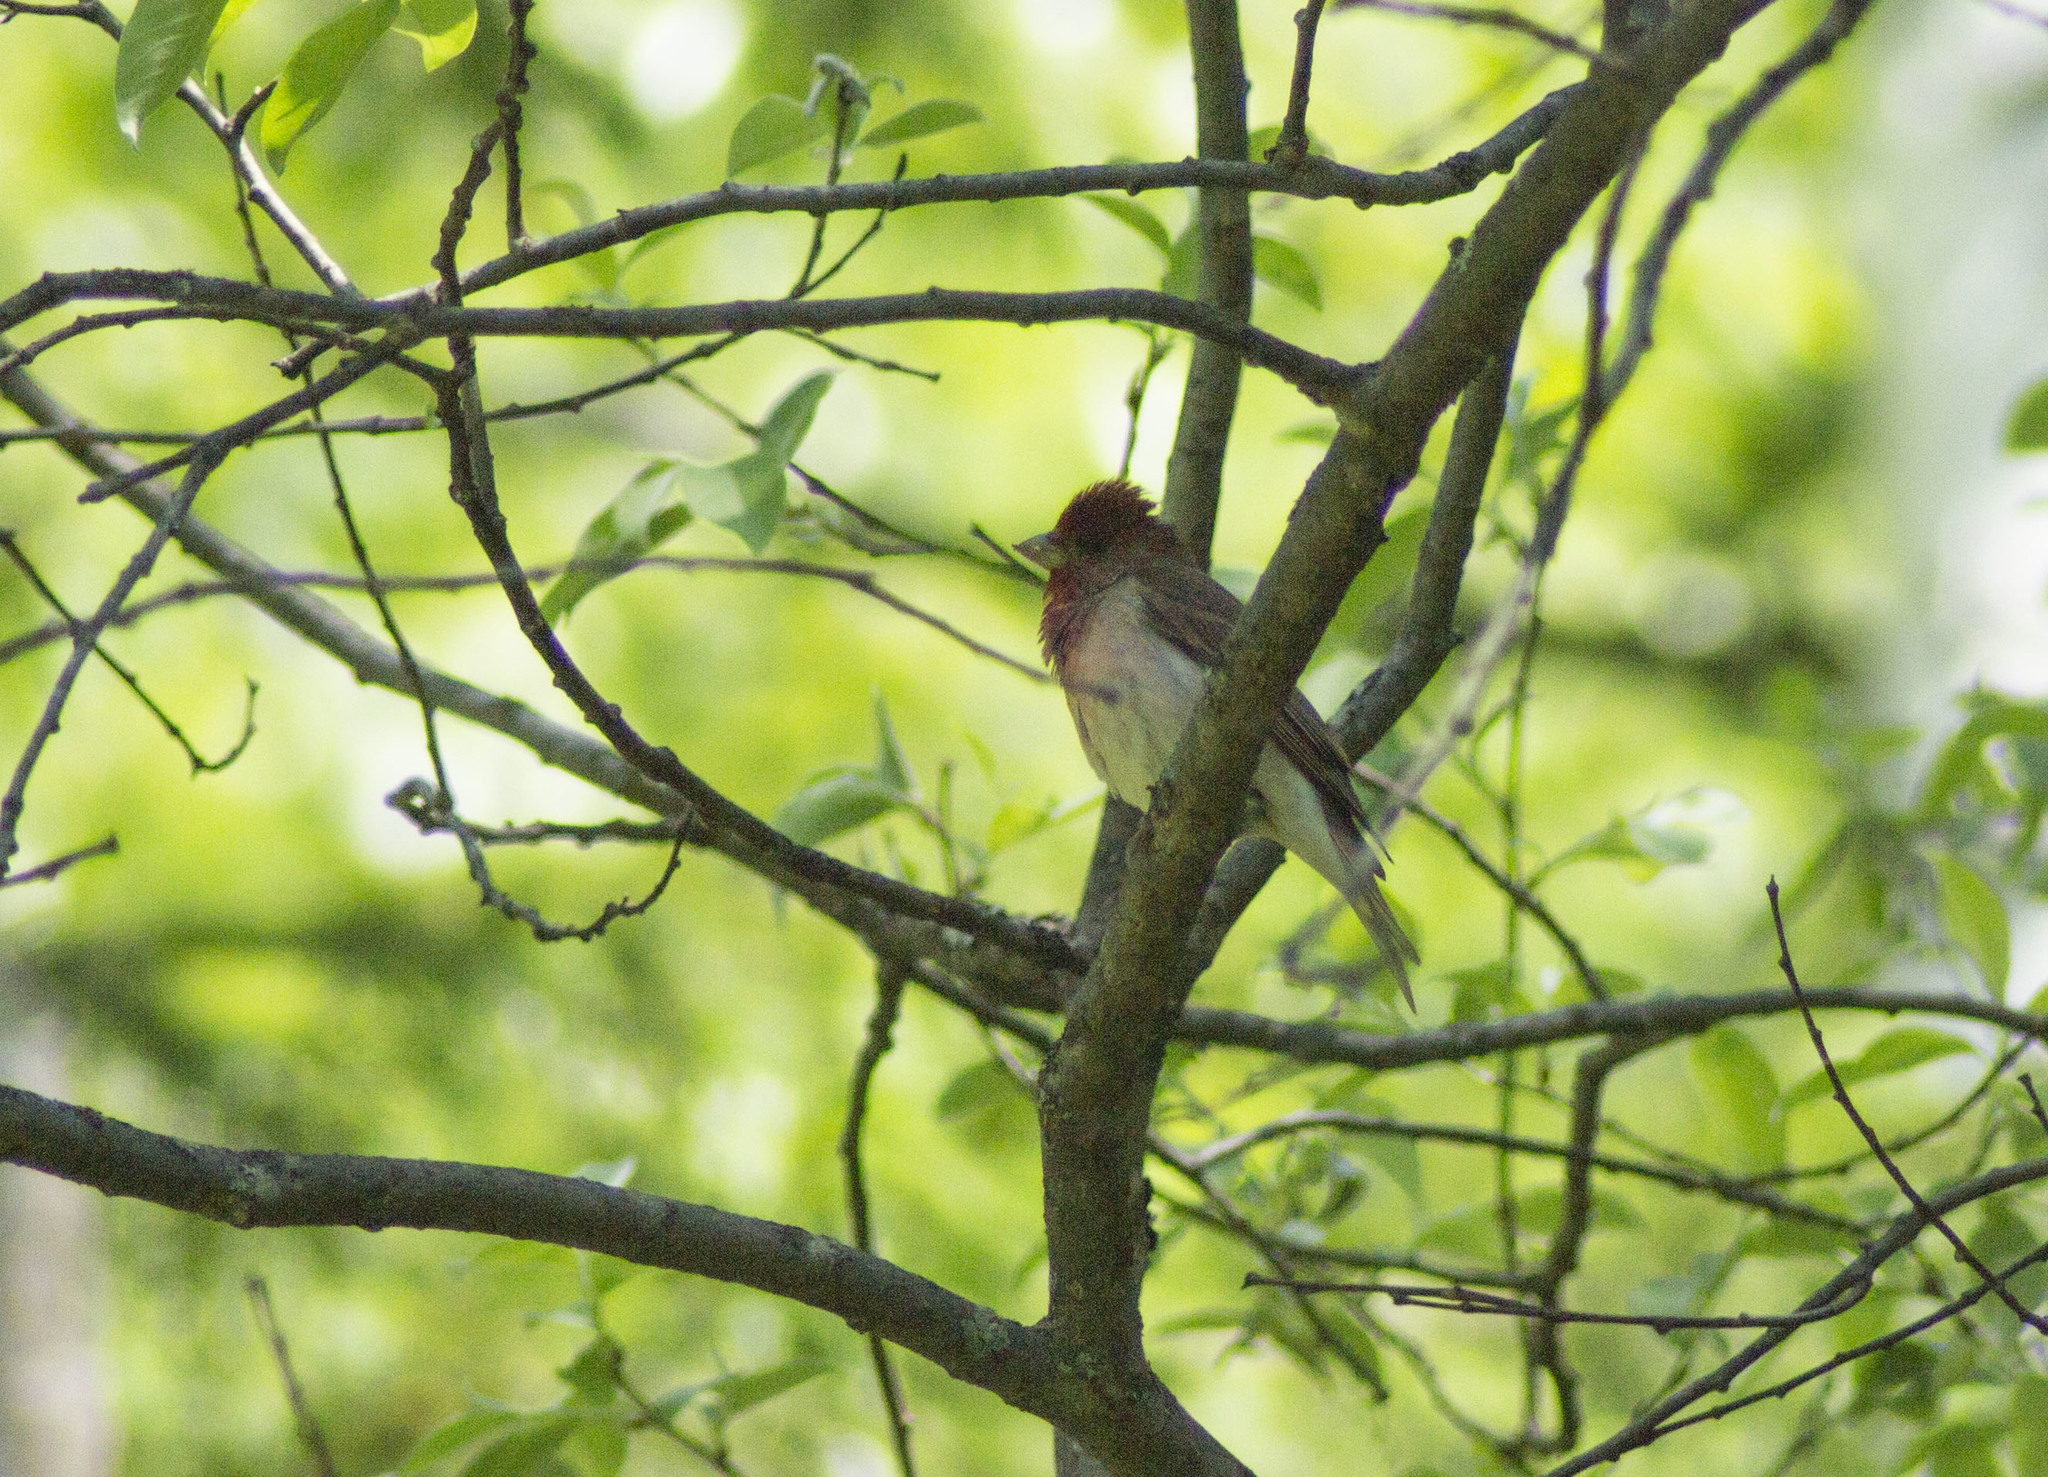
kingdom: Animalia
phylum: Chordata
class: Aves
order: Passeriformes
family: Fringillidae
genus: Carpodacus
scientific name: Carpodacus erythrinus
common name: Common rosefinch
